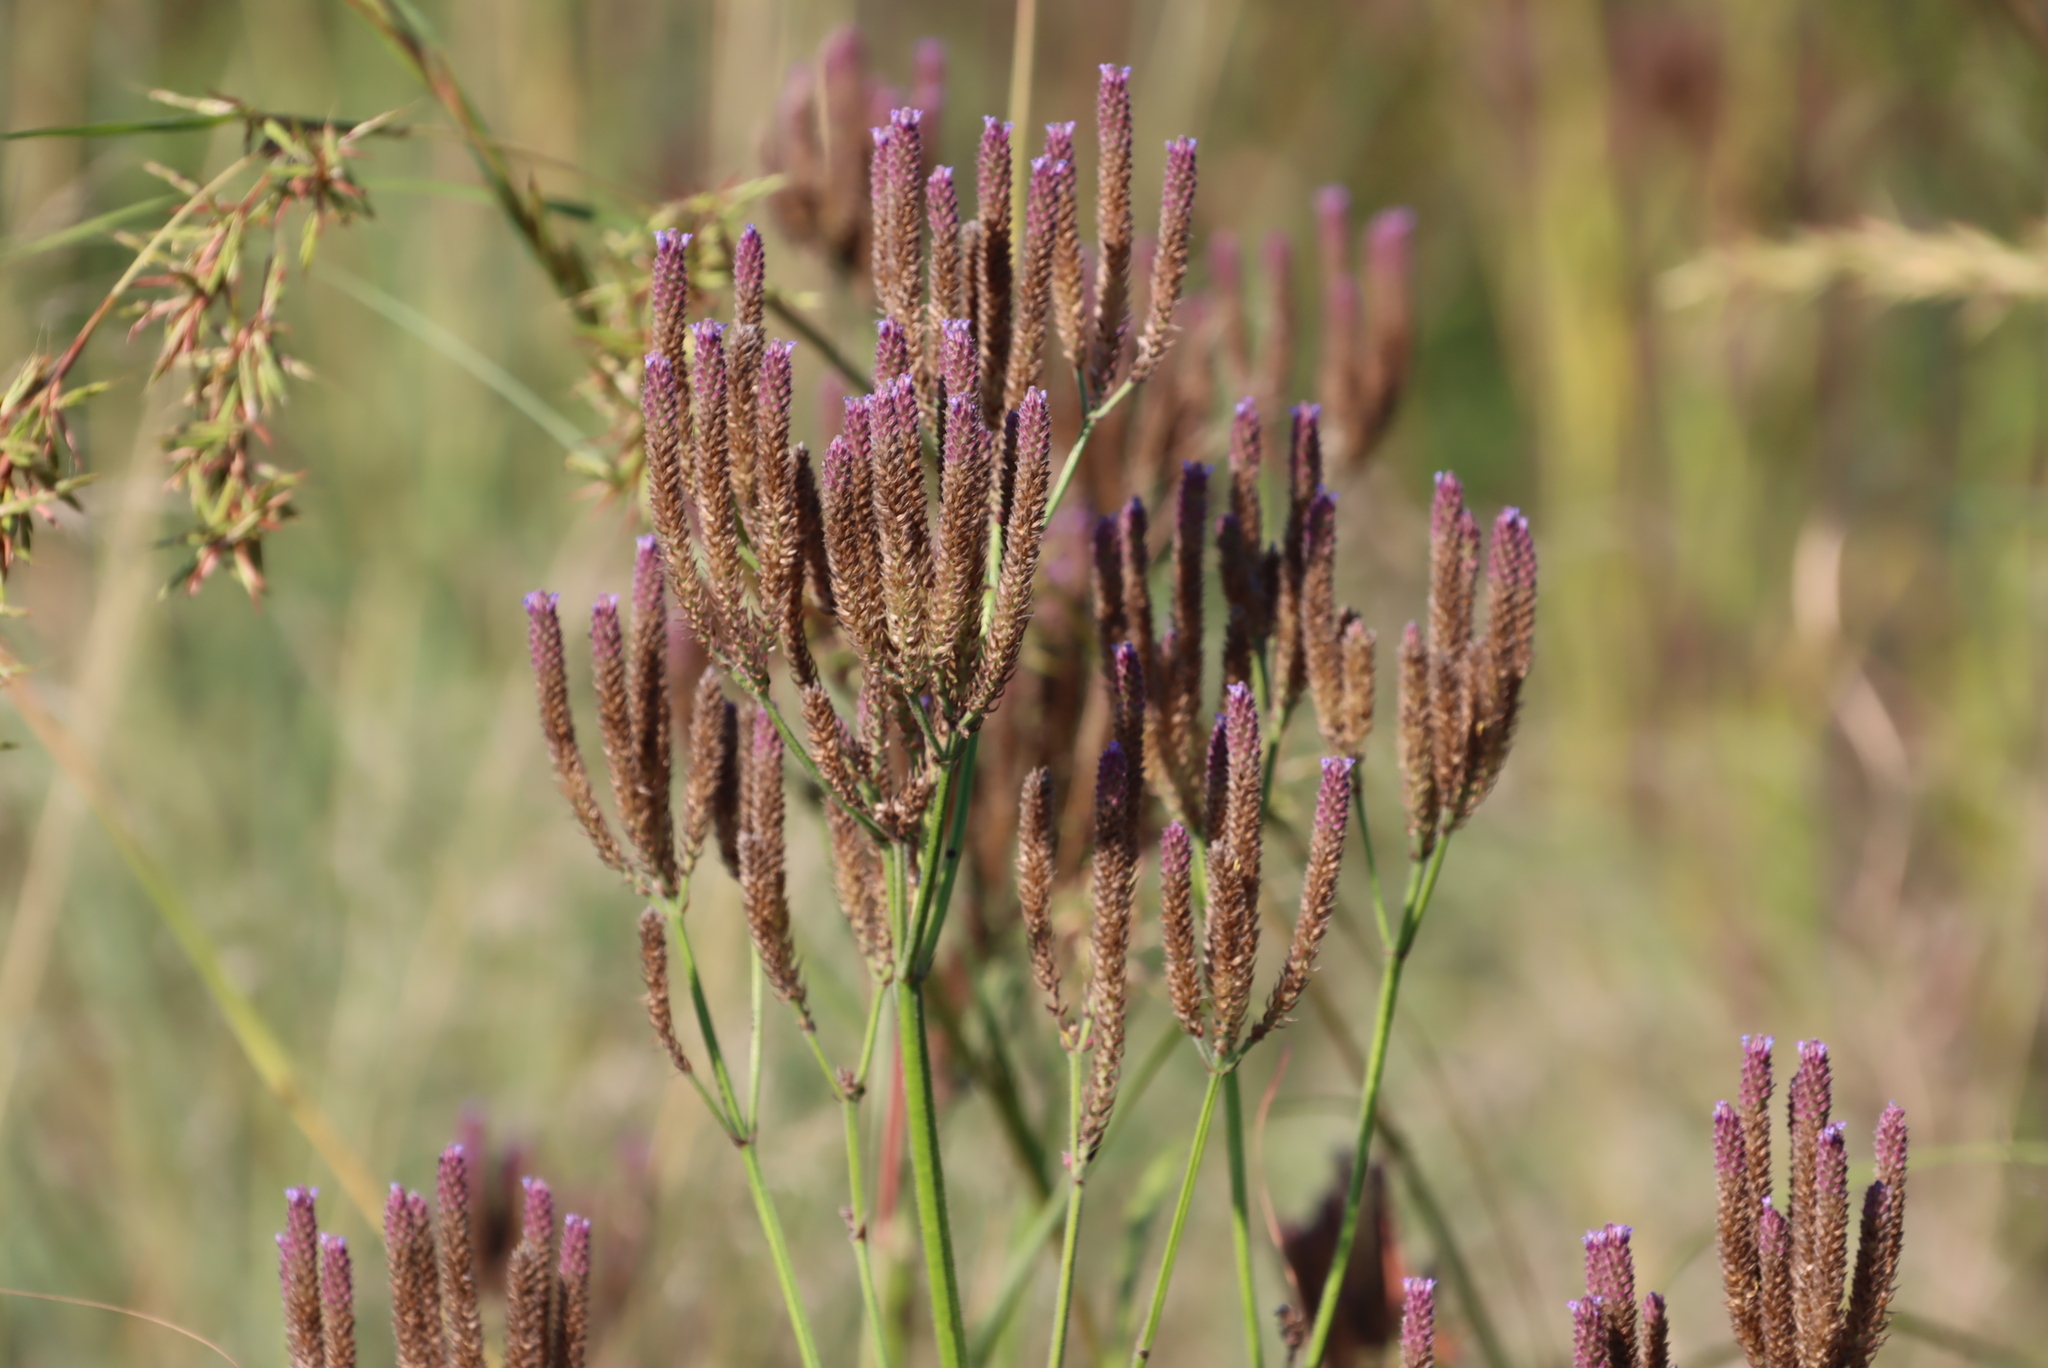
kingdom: Plantae
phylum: Tracheophyta
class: Magnoliopsida
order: Lamiales
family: Verbenaceae
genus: Verbena
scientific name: Verbena incompta
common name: Purpletop vervain
